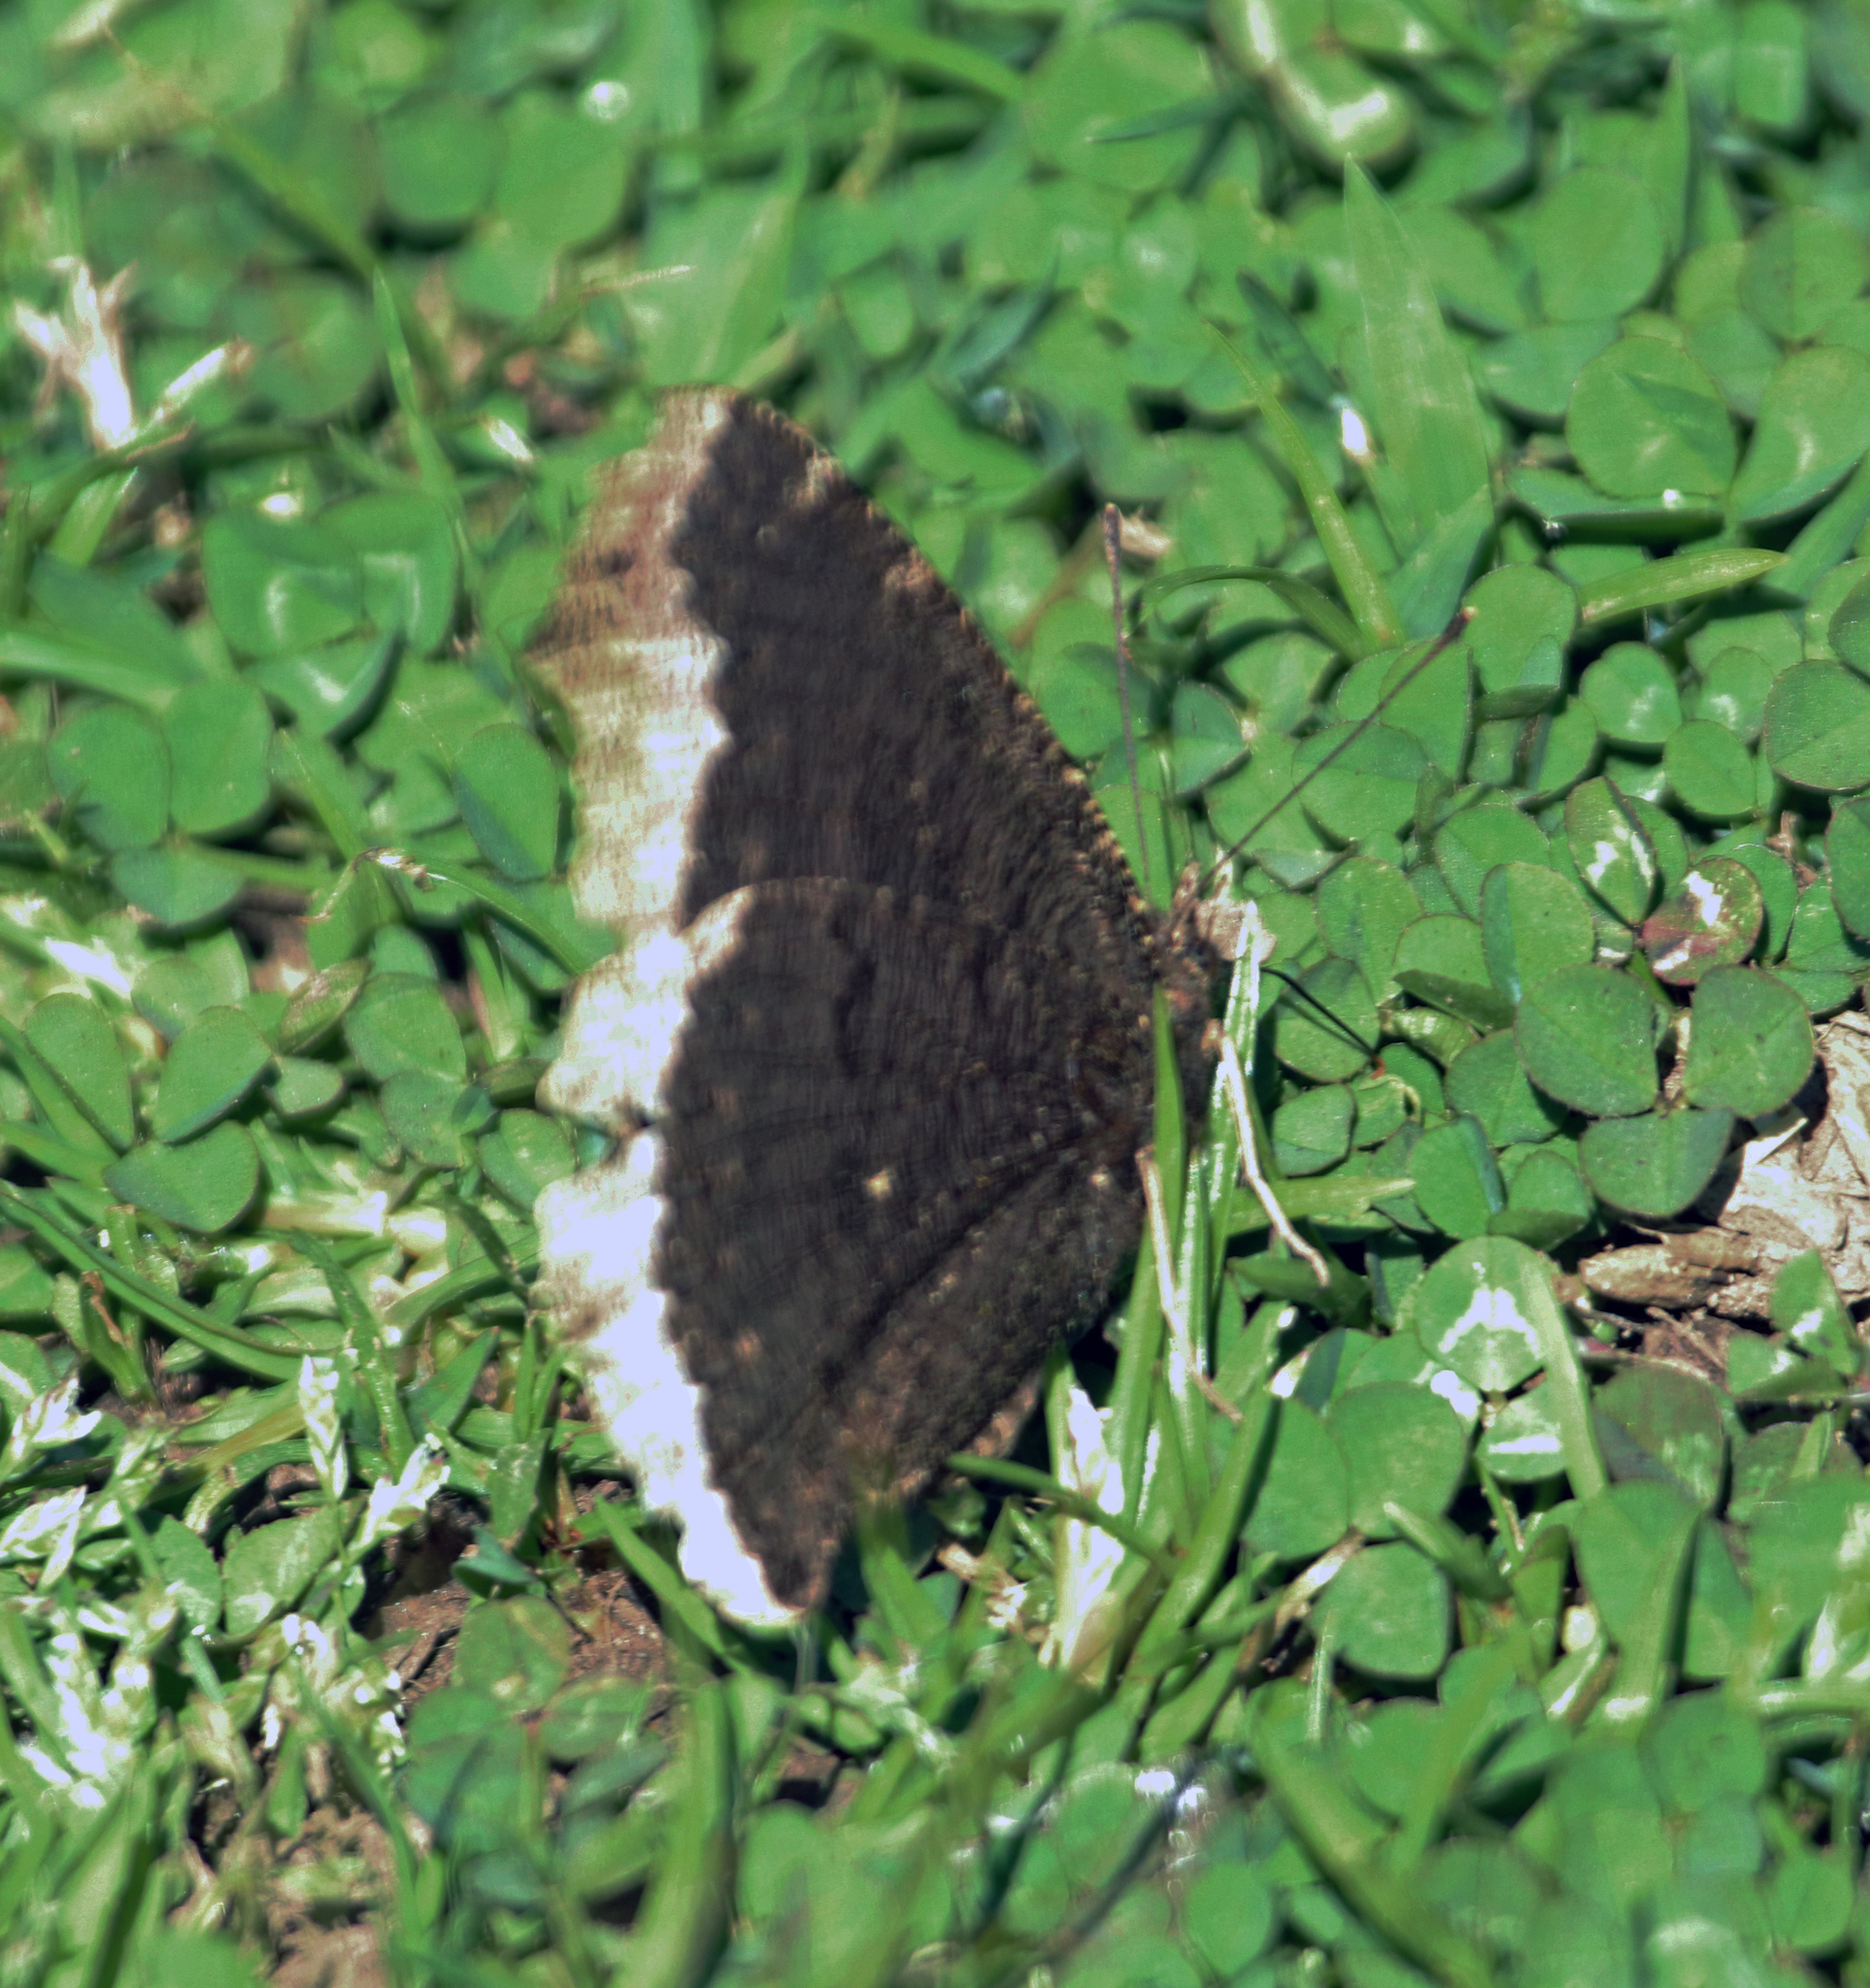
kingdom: Animalia
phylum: Arthropoda
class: Insecta
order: Lepidoptera
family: Nymphalidae
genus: Nymphalis
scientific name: Nymphalis antiopa
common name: Camberwell beauty
